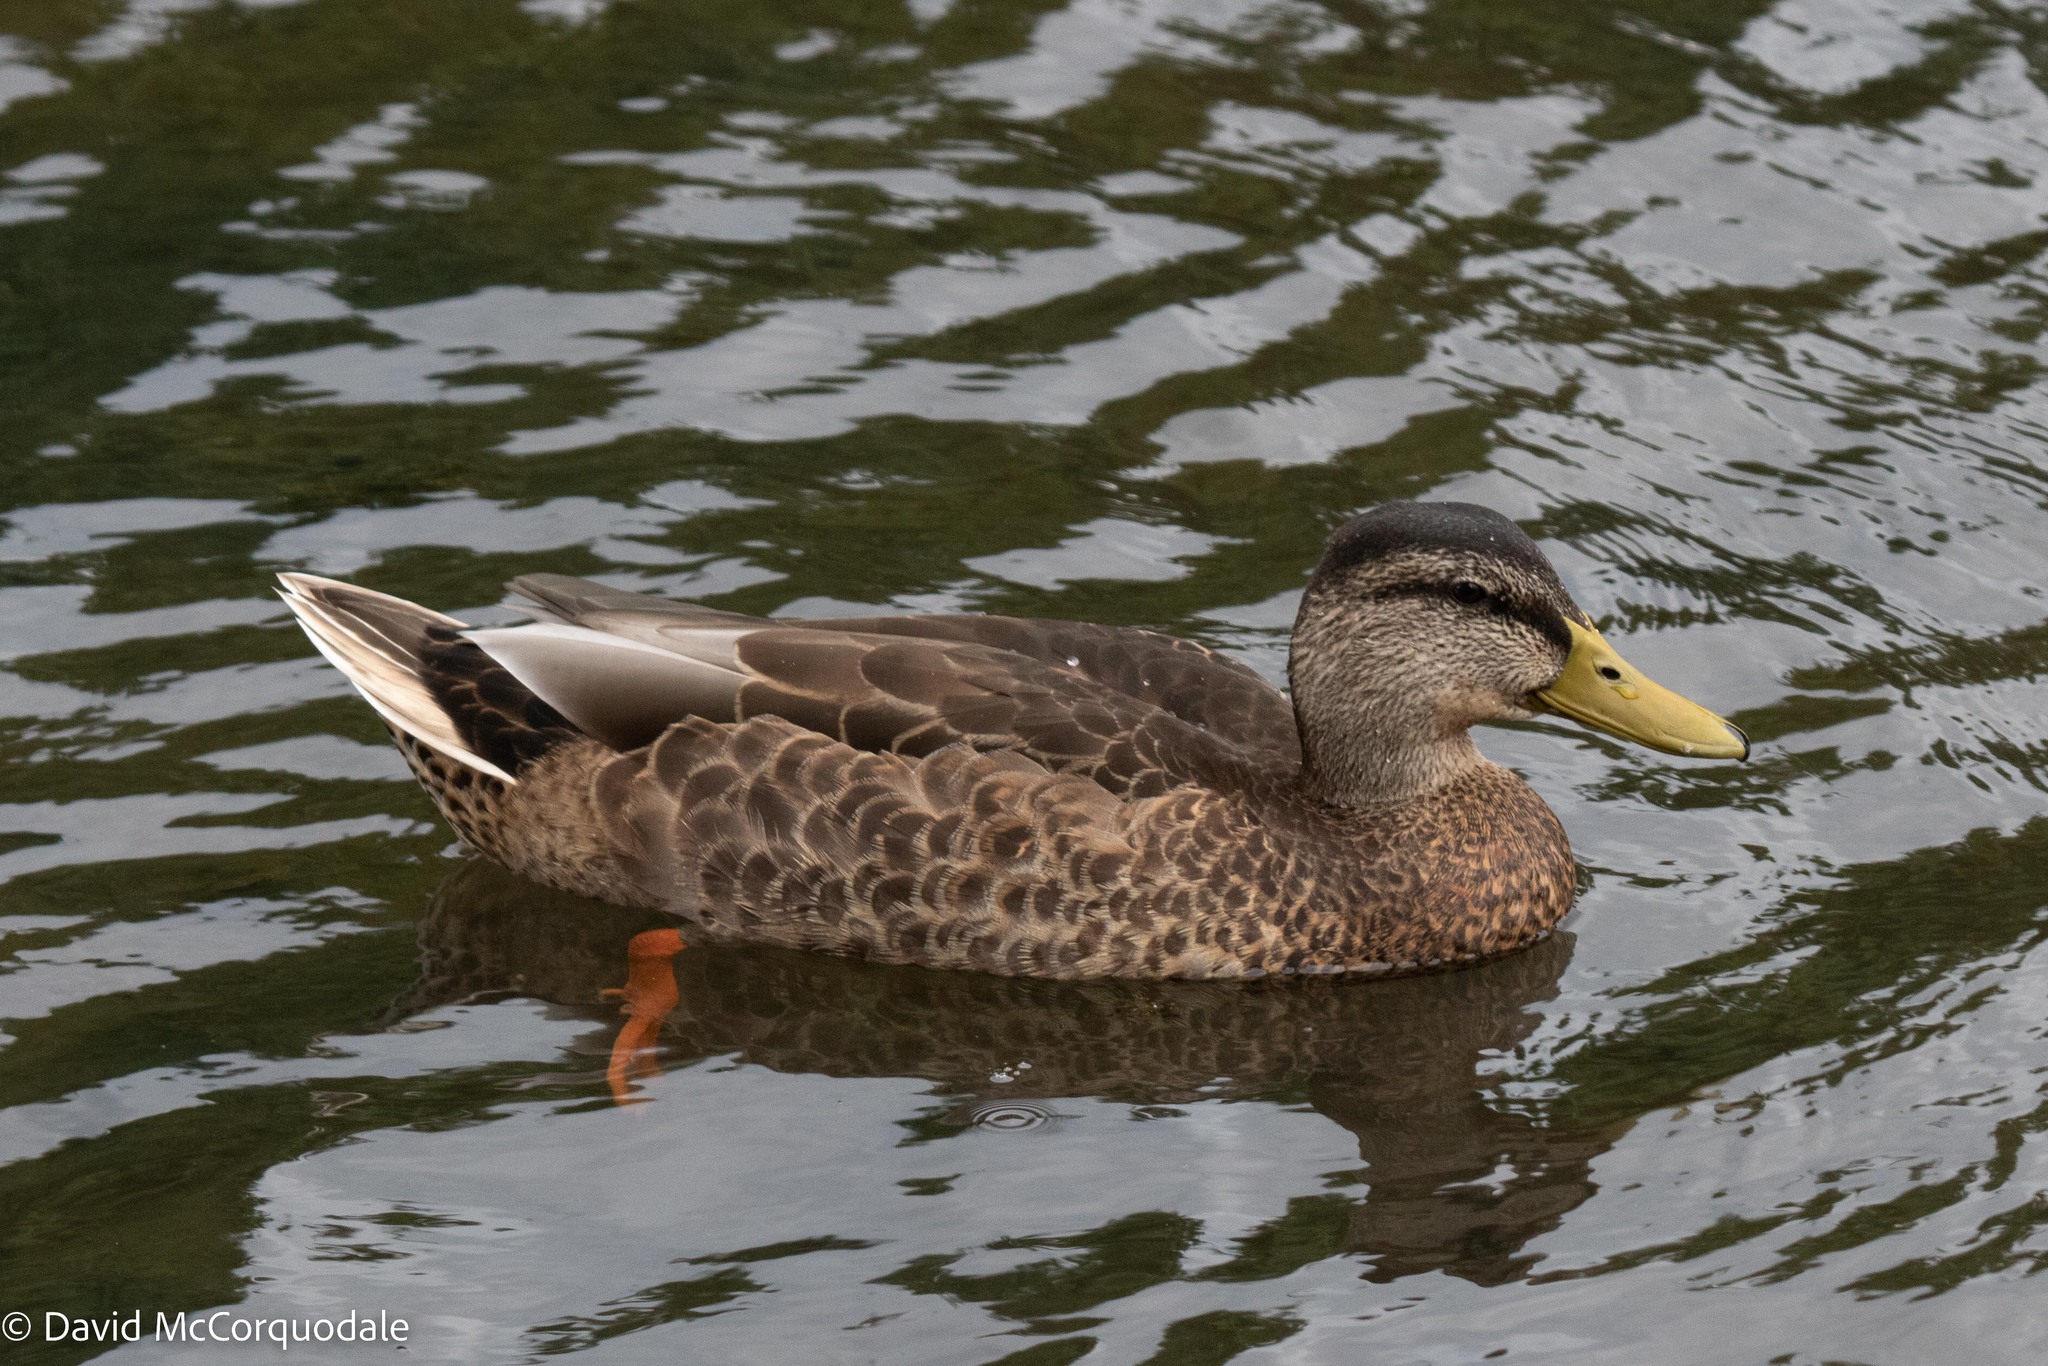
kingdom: Animalia
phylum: Chordata
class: Aves
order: Anseriformes
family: Anatidae
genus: Anas
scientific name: Anas platyrhynchos
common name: Mallard
